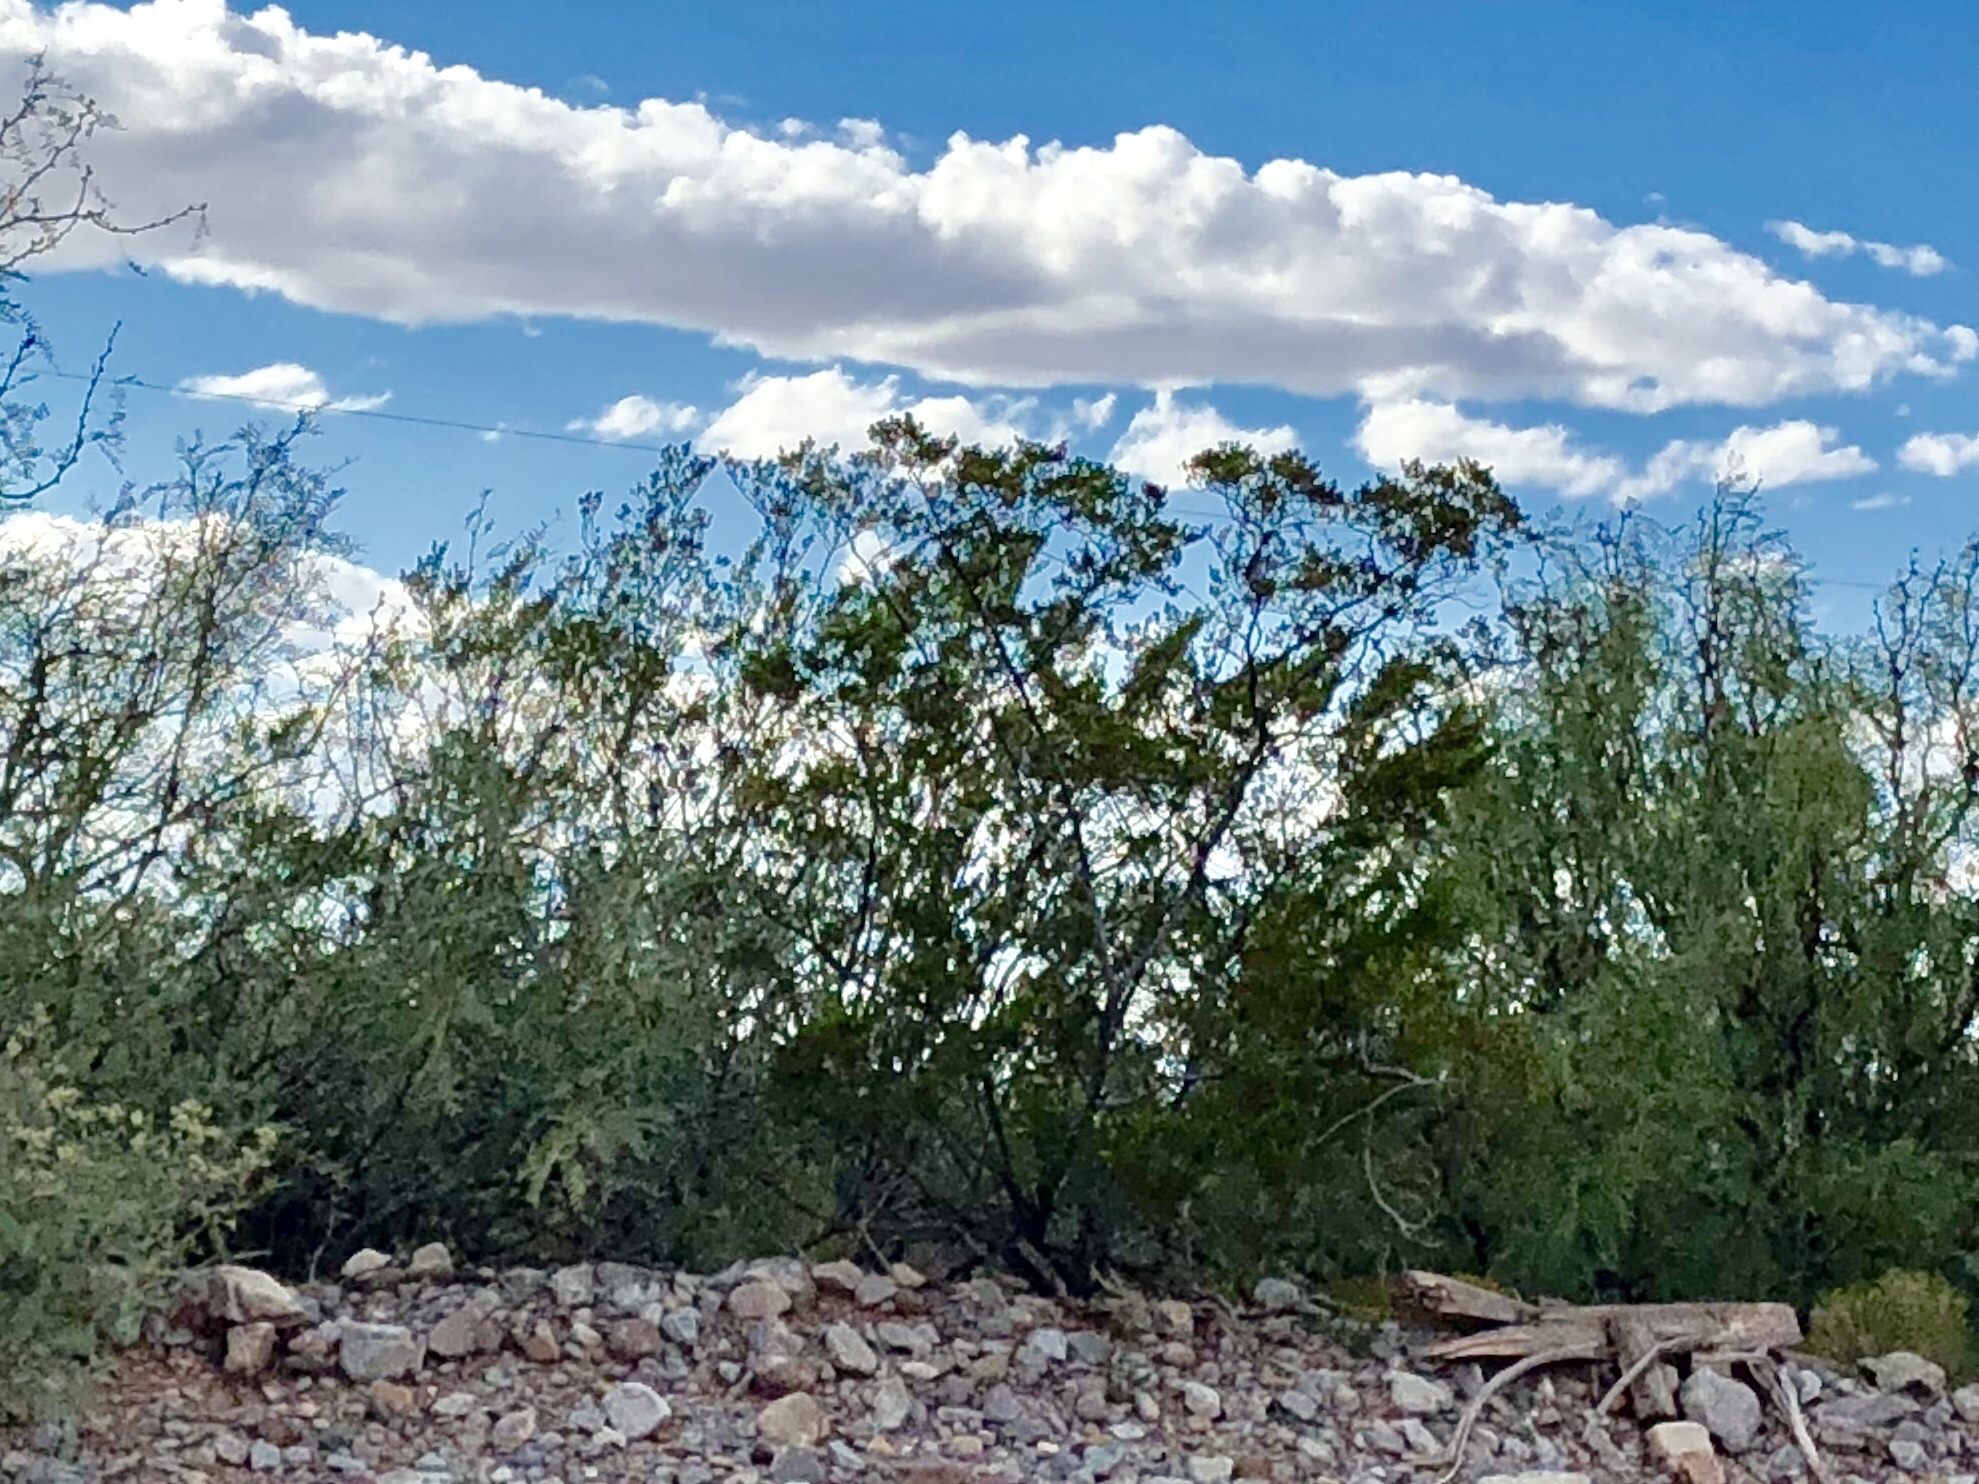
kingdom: Plantae
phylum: Tracheophyta
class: Magnoliopsida
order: Zygophyllales
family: Zygophyllaceae
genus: Larrea
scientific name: Larrea tridentata
